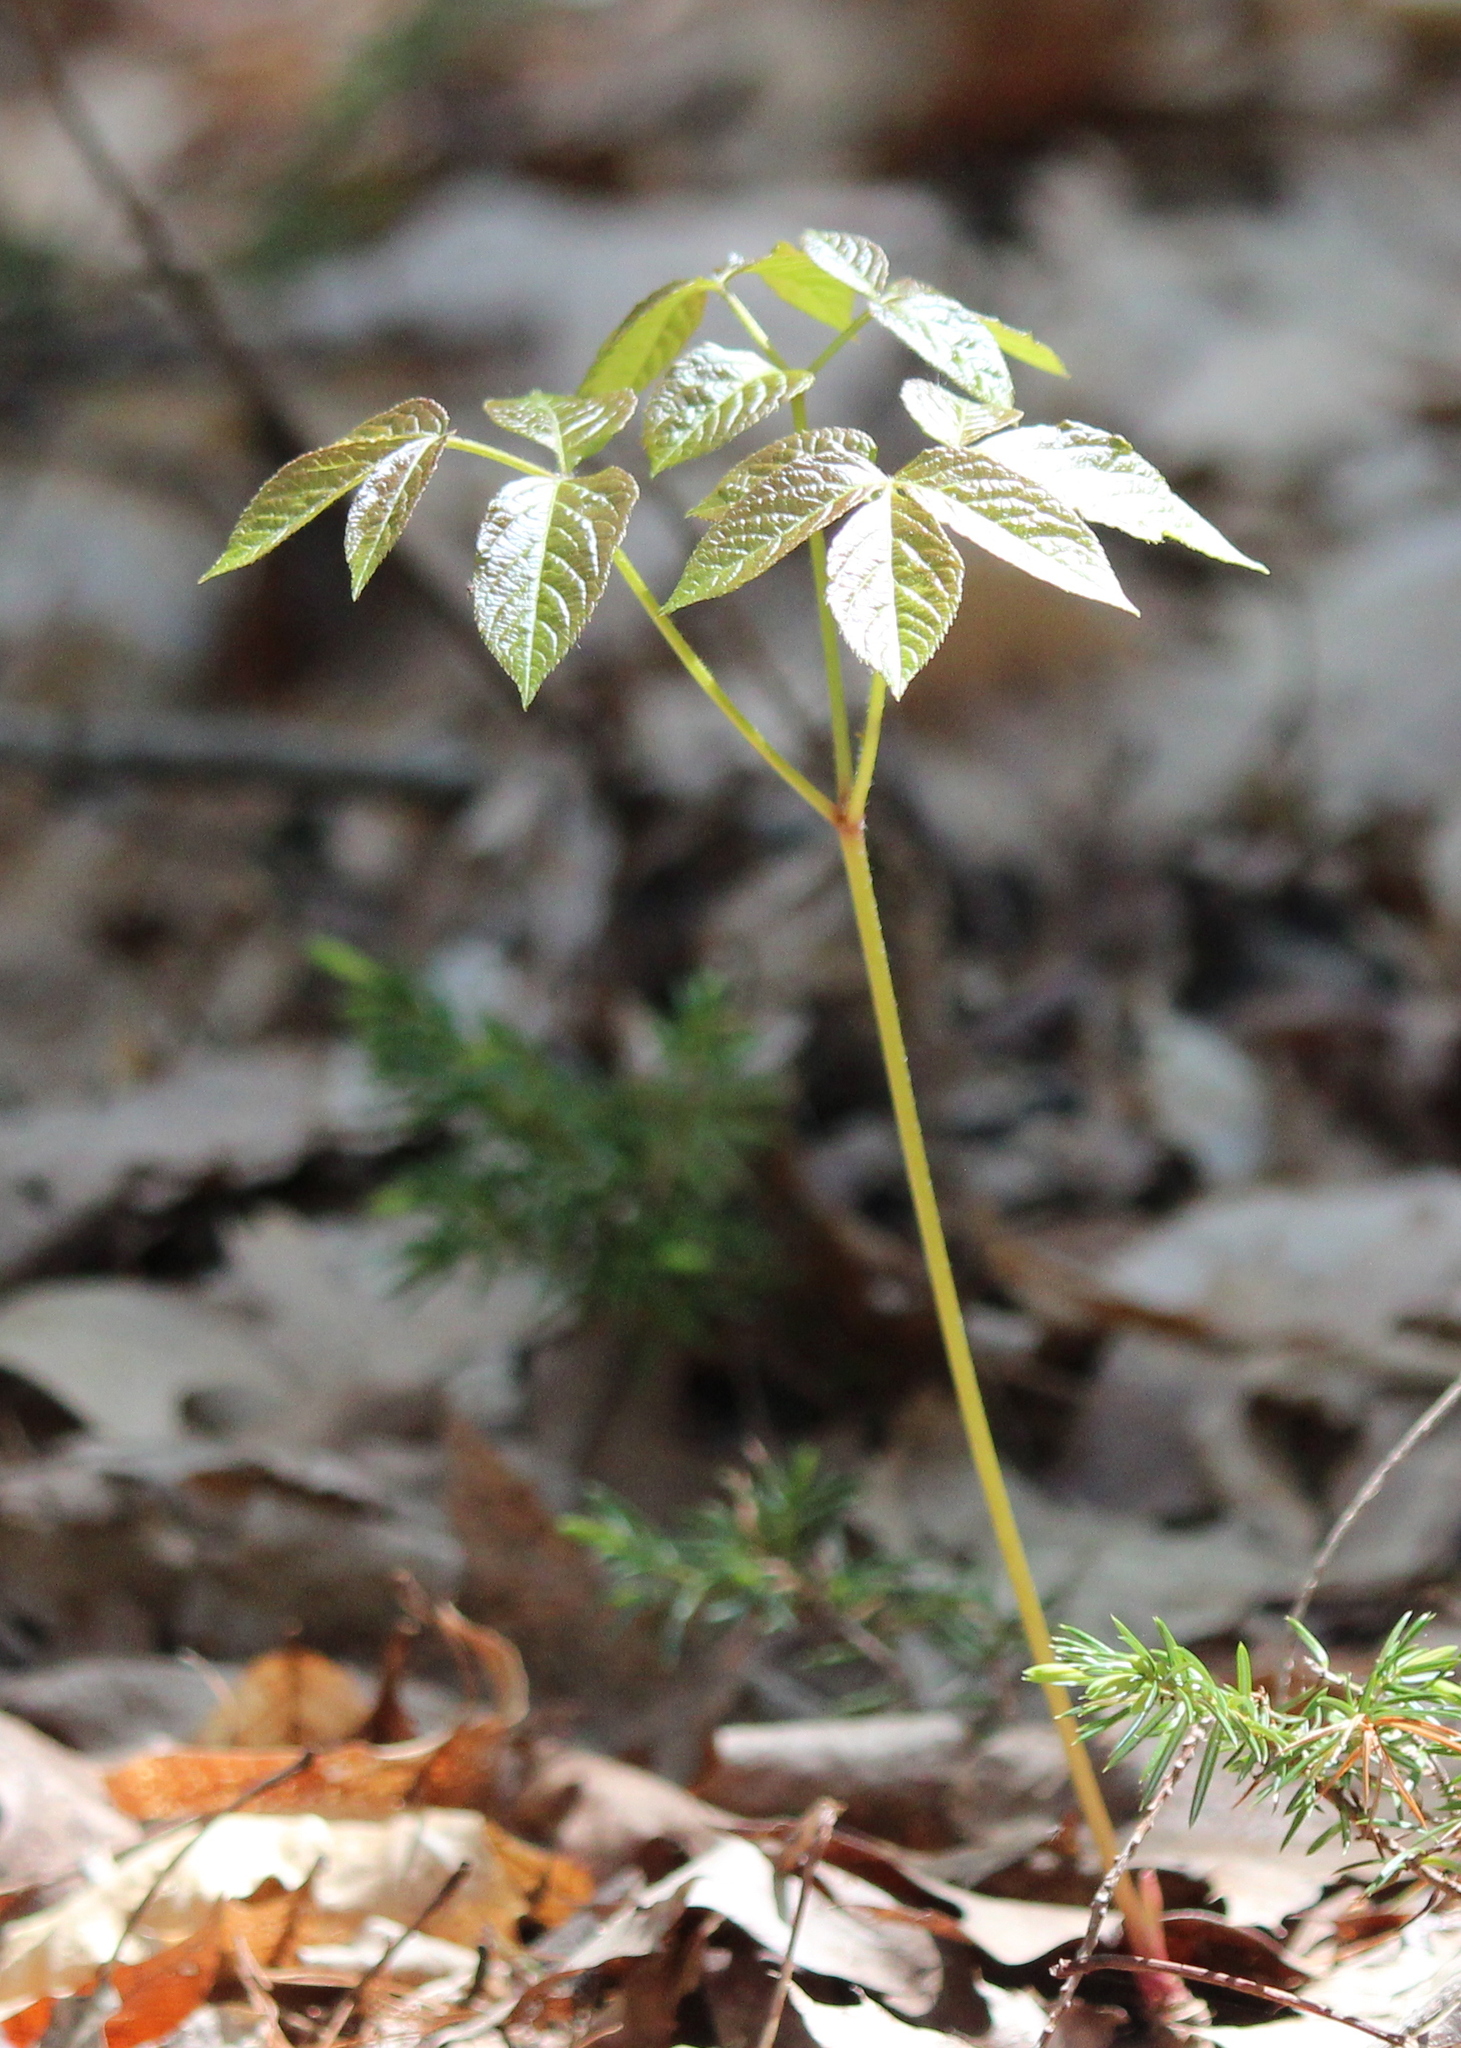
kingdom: Plantae
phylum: Tracheophyta
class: Magnoliopsida
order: Apiales
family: Araliaceae
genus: Aralia
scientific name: Aralia nudicaulis
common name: Wild sarsaparilla
